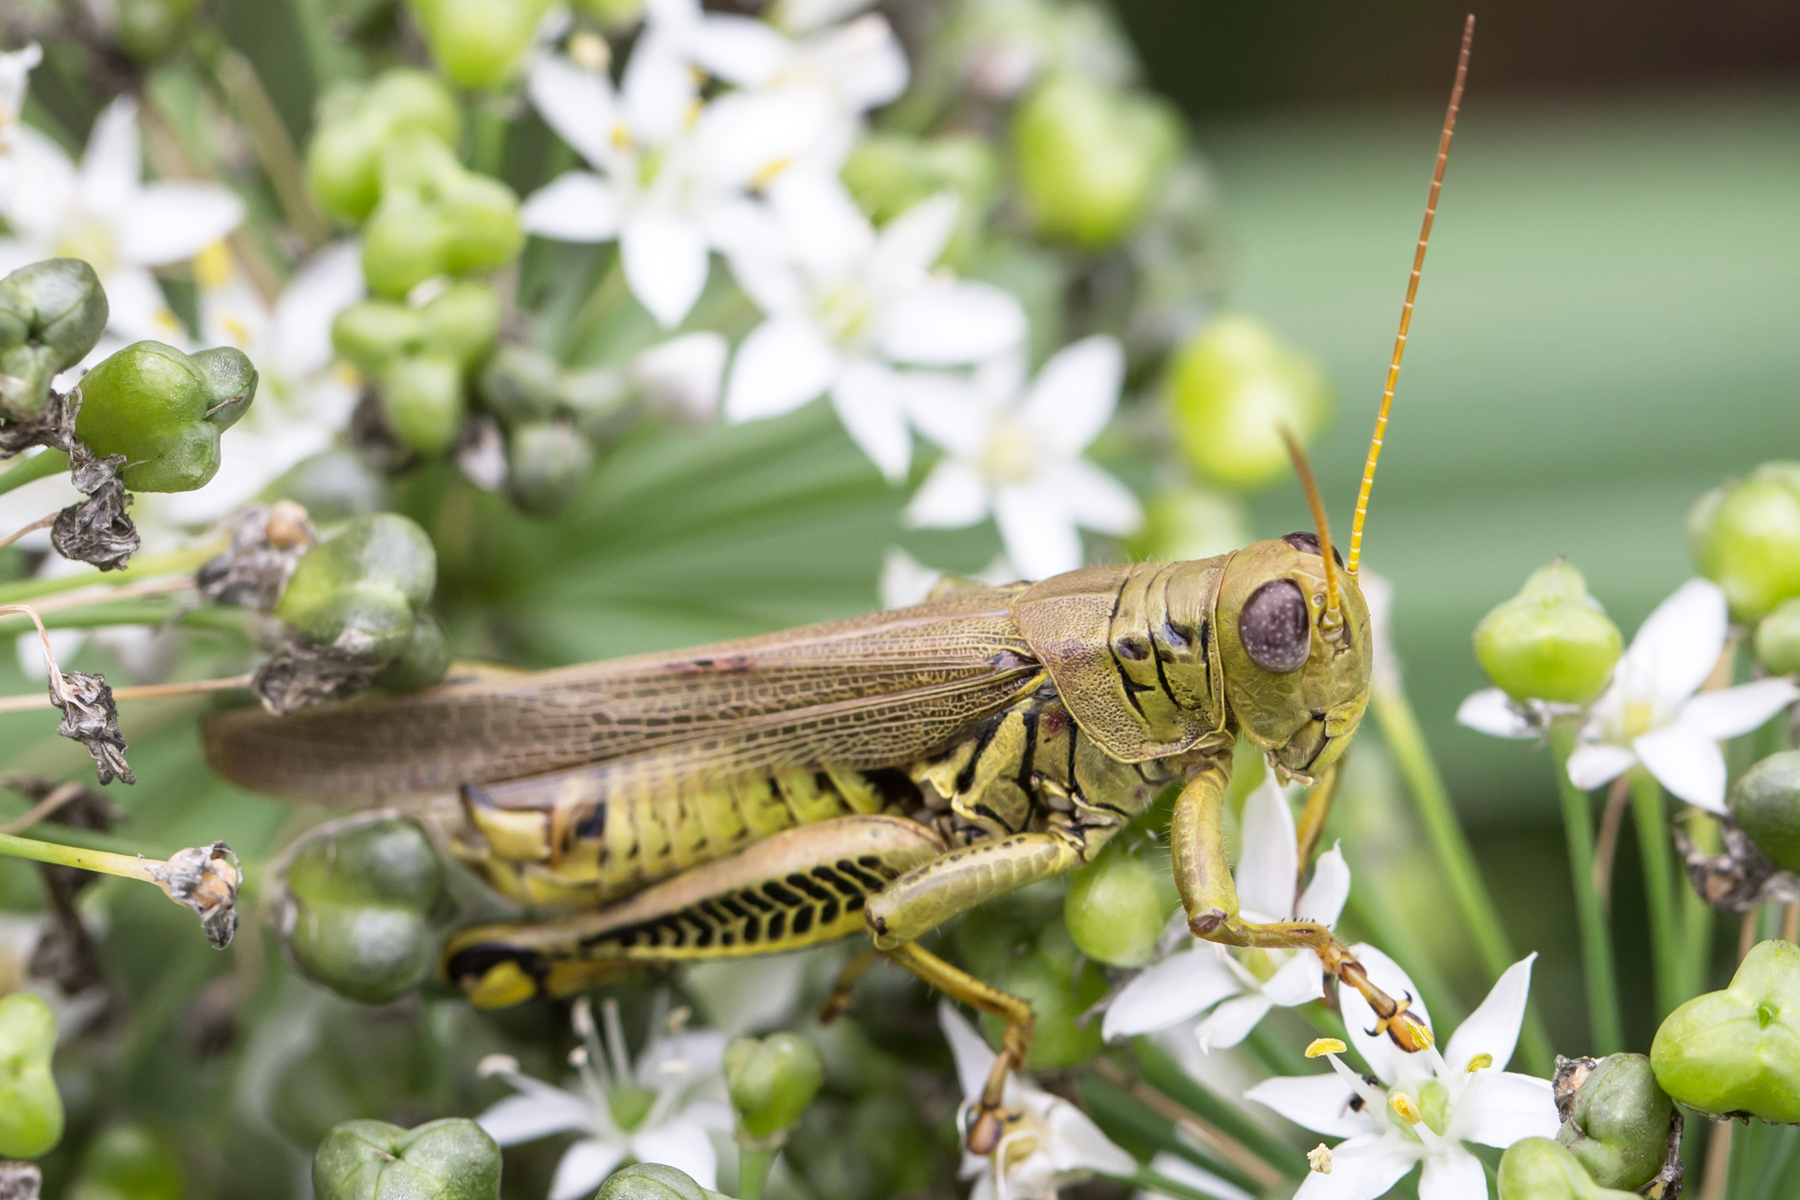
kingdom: Animalia
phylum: Arthropoda
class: Insecta
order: Orthoptera
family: Acrididae
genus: Melanoplus
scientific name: Melanoplus differentialis
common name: Differential grasshopper
